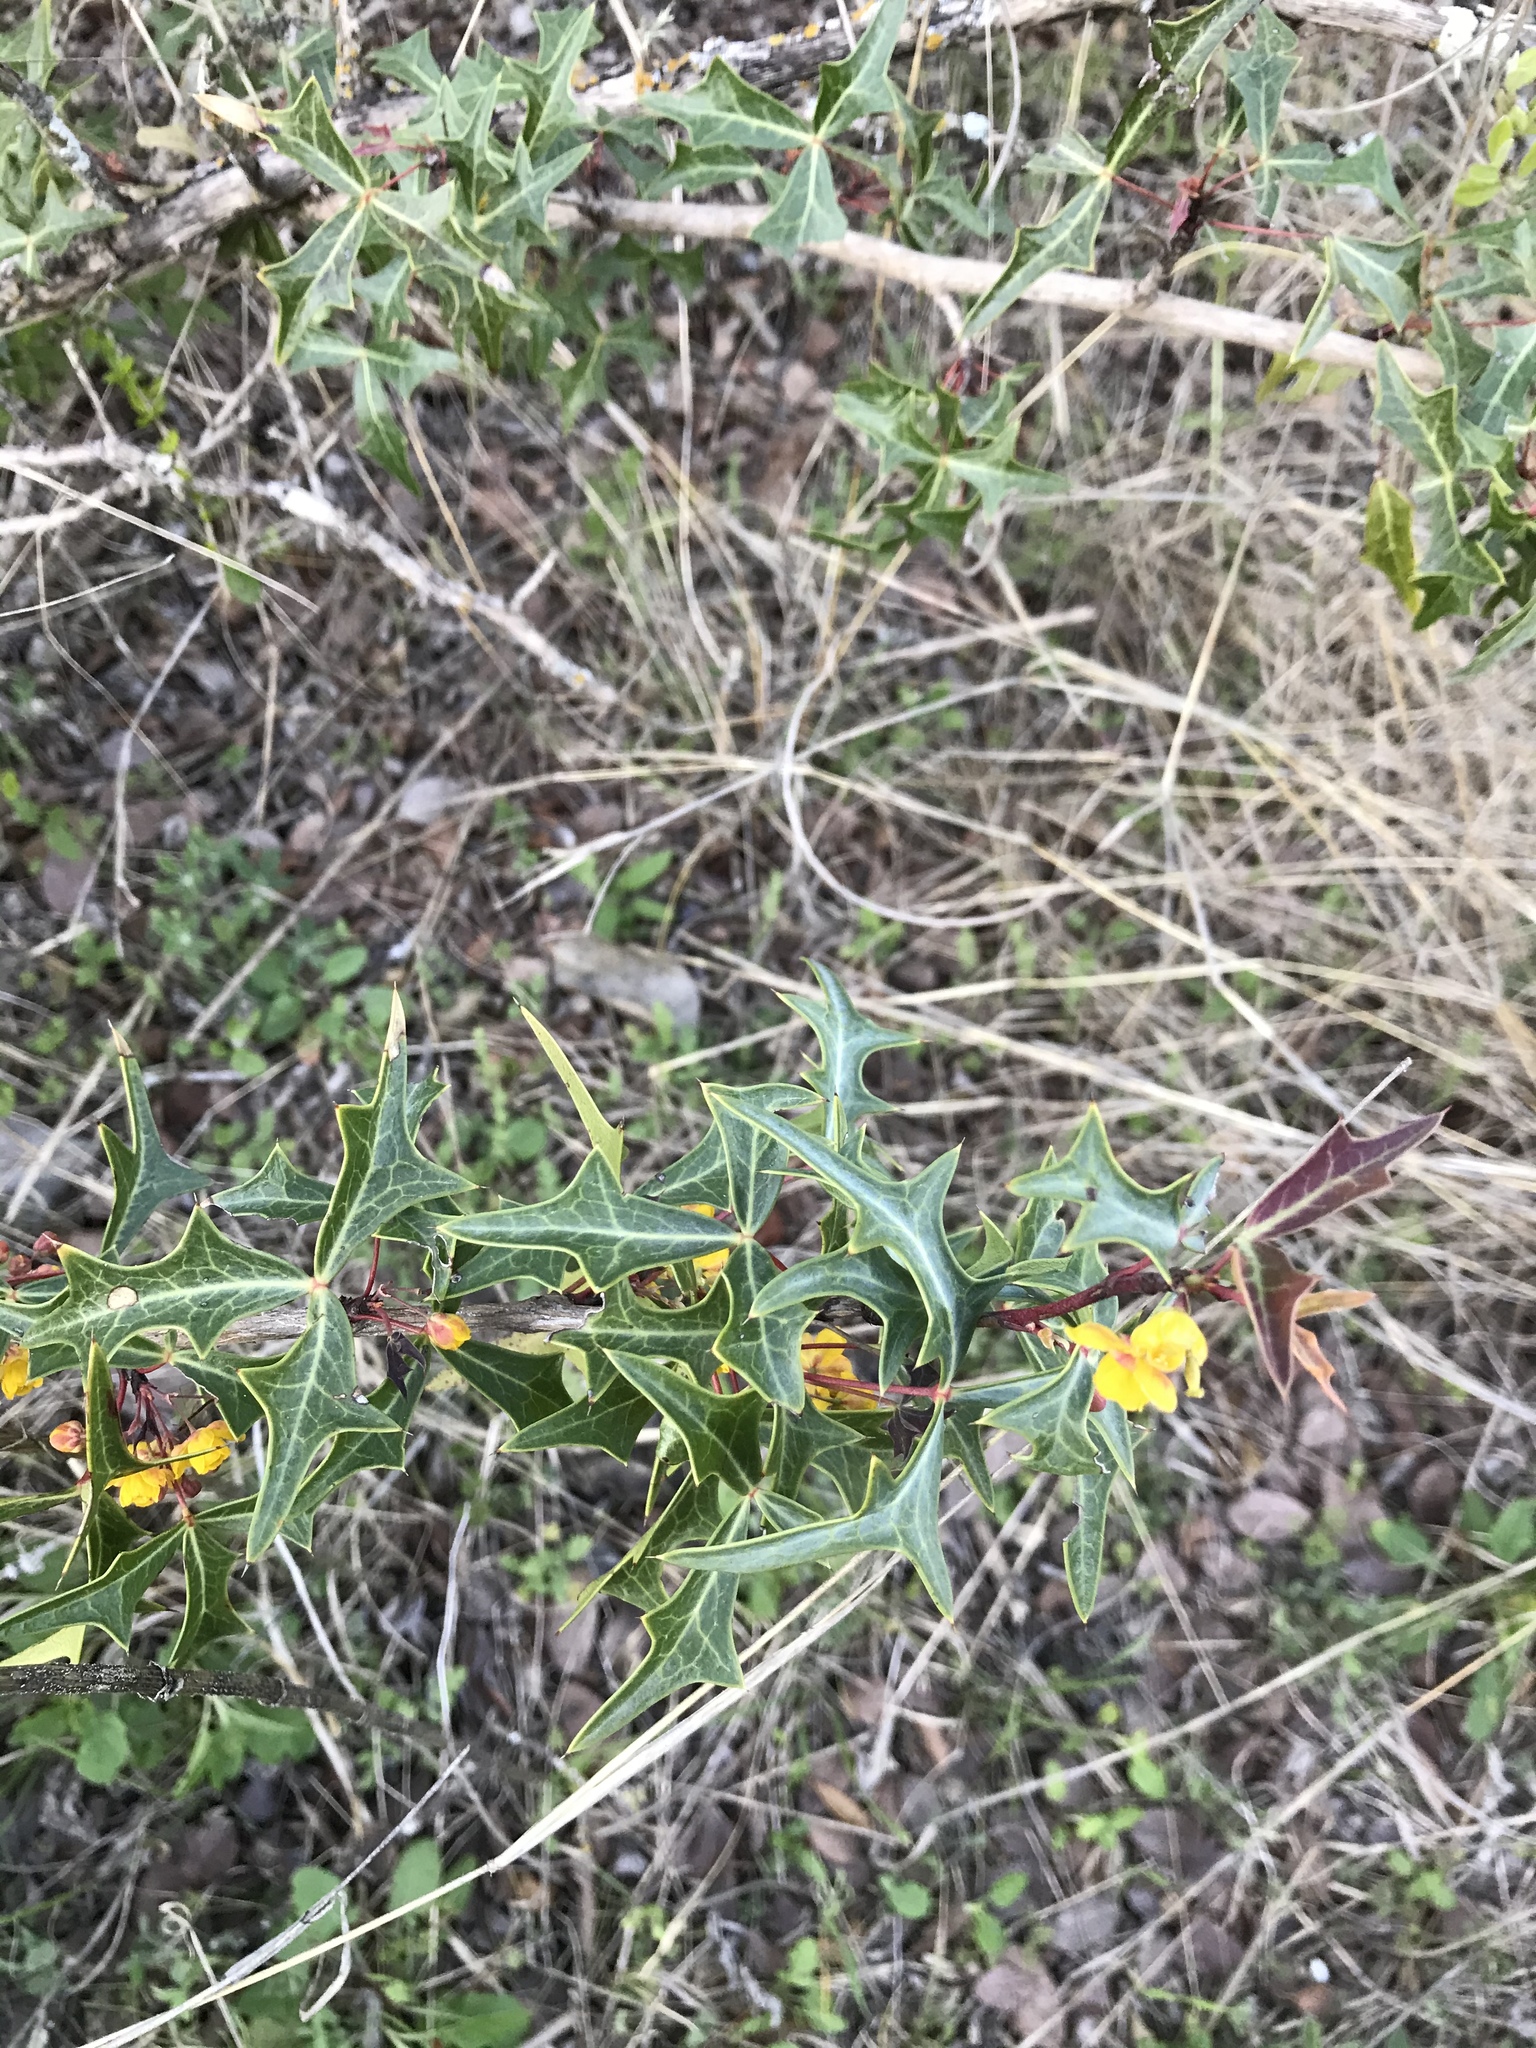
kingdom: Plantae
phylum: Tracheophyta
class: Magnoliopsida
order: Ranunculales
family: Berberidaceae
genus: Alloberberis
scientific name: Alloberberis trifoliolata
